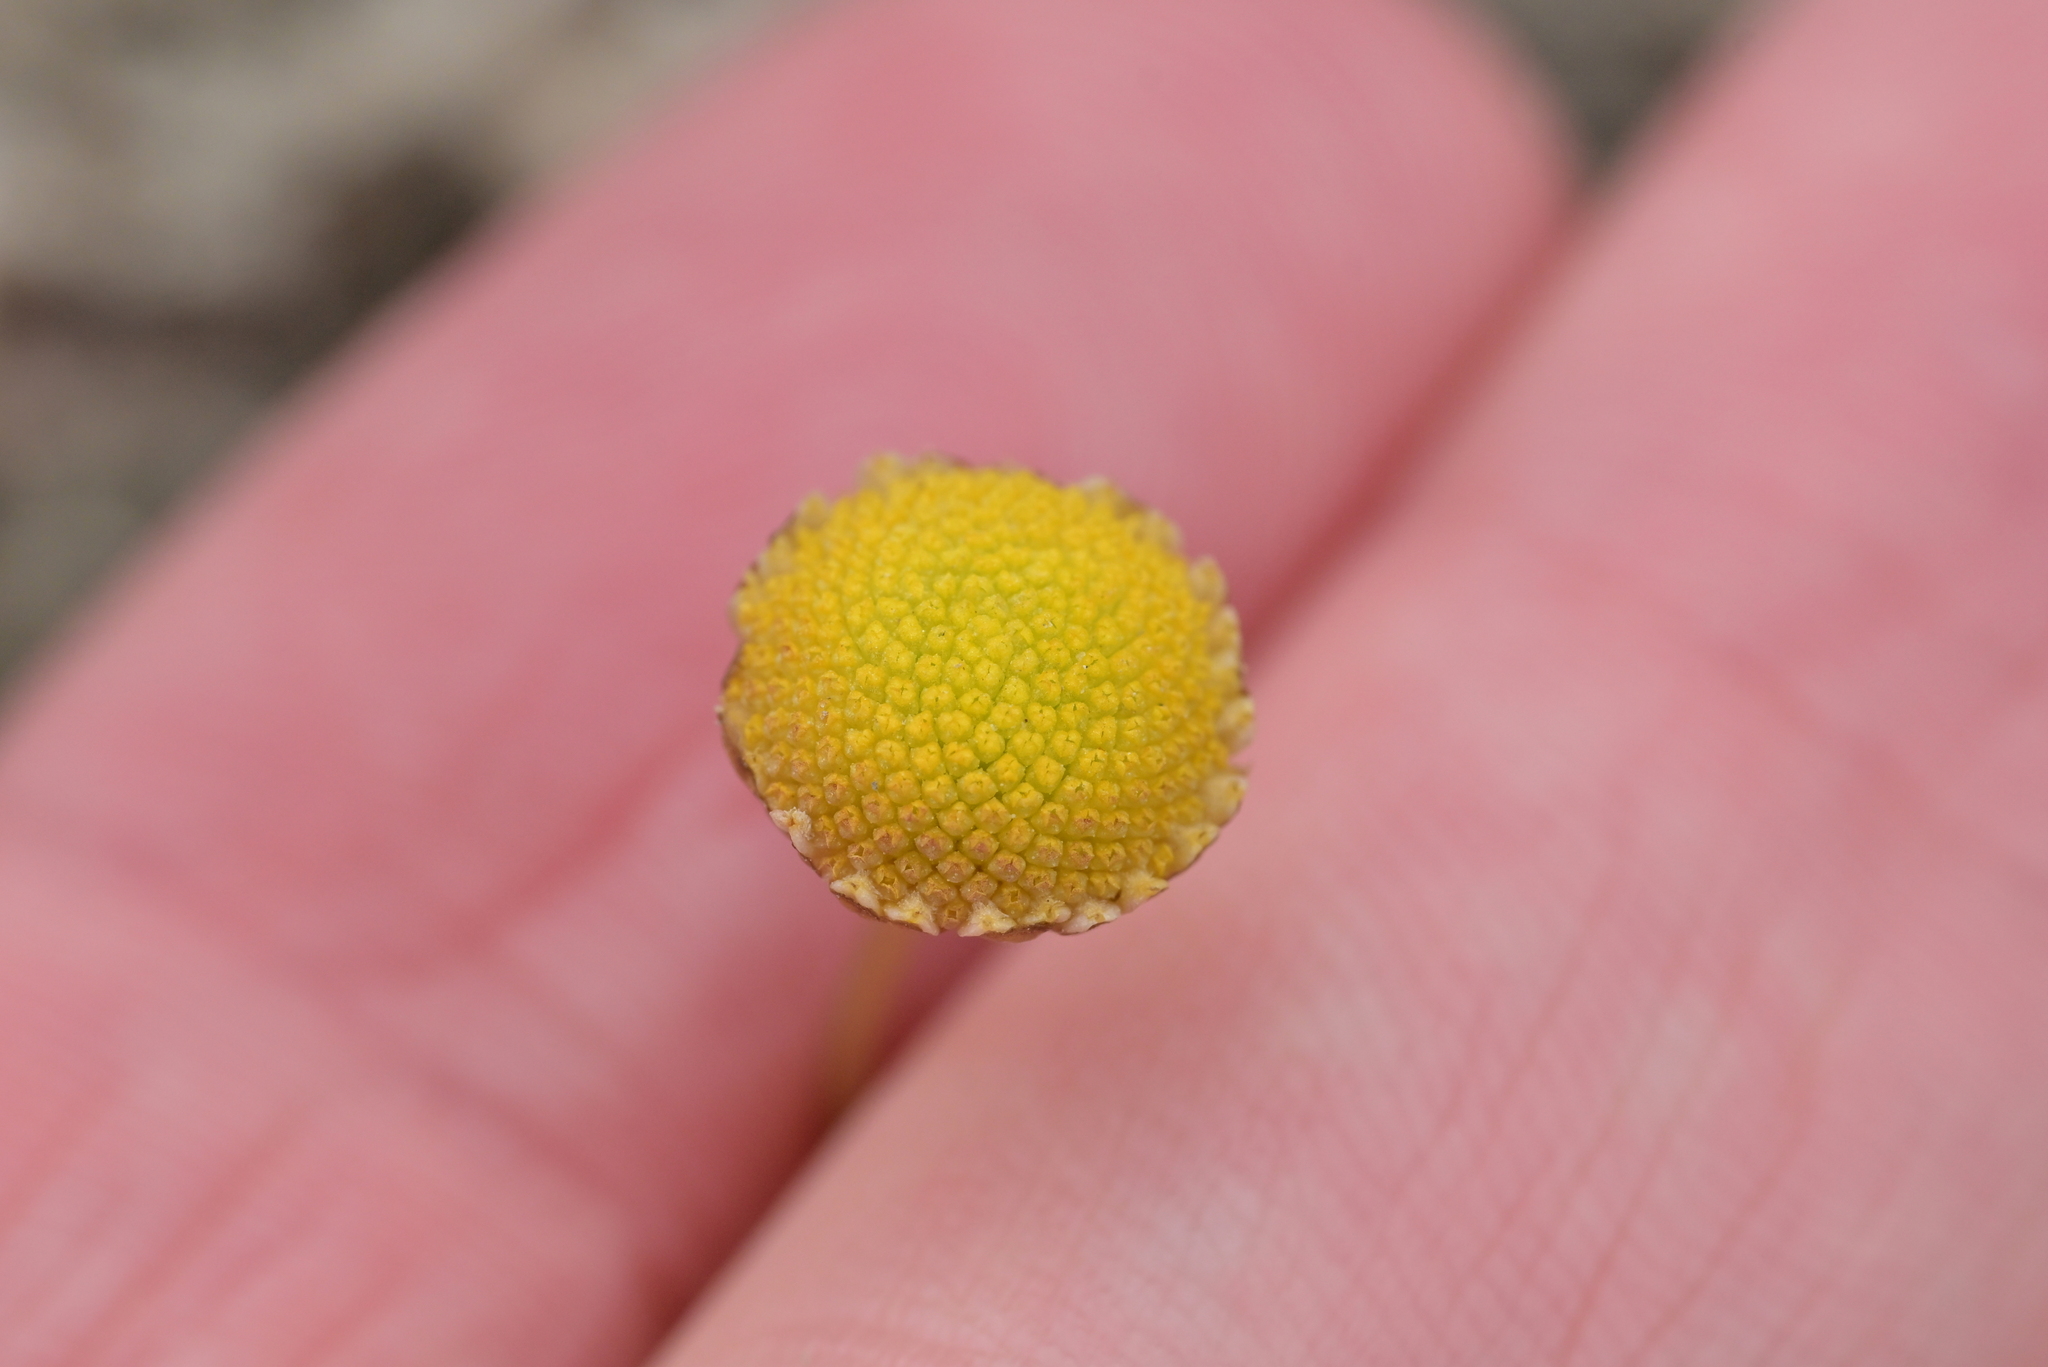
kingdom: Plantae
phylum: Tracheophyta
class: Magnoliopsida
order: Asterales
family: Asteraceae
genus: Cotula
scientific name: Cotula coronopifolia
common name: Buttonweed
